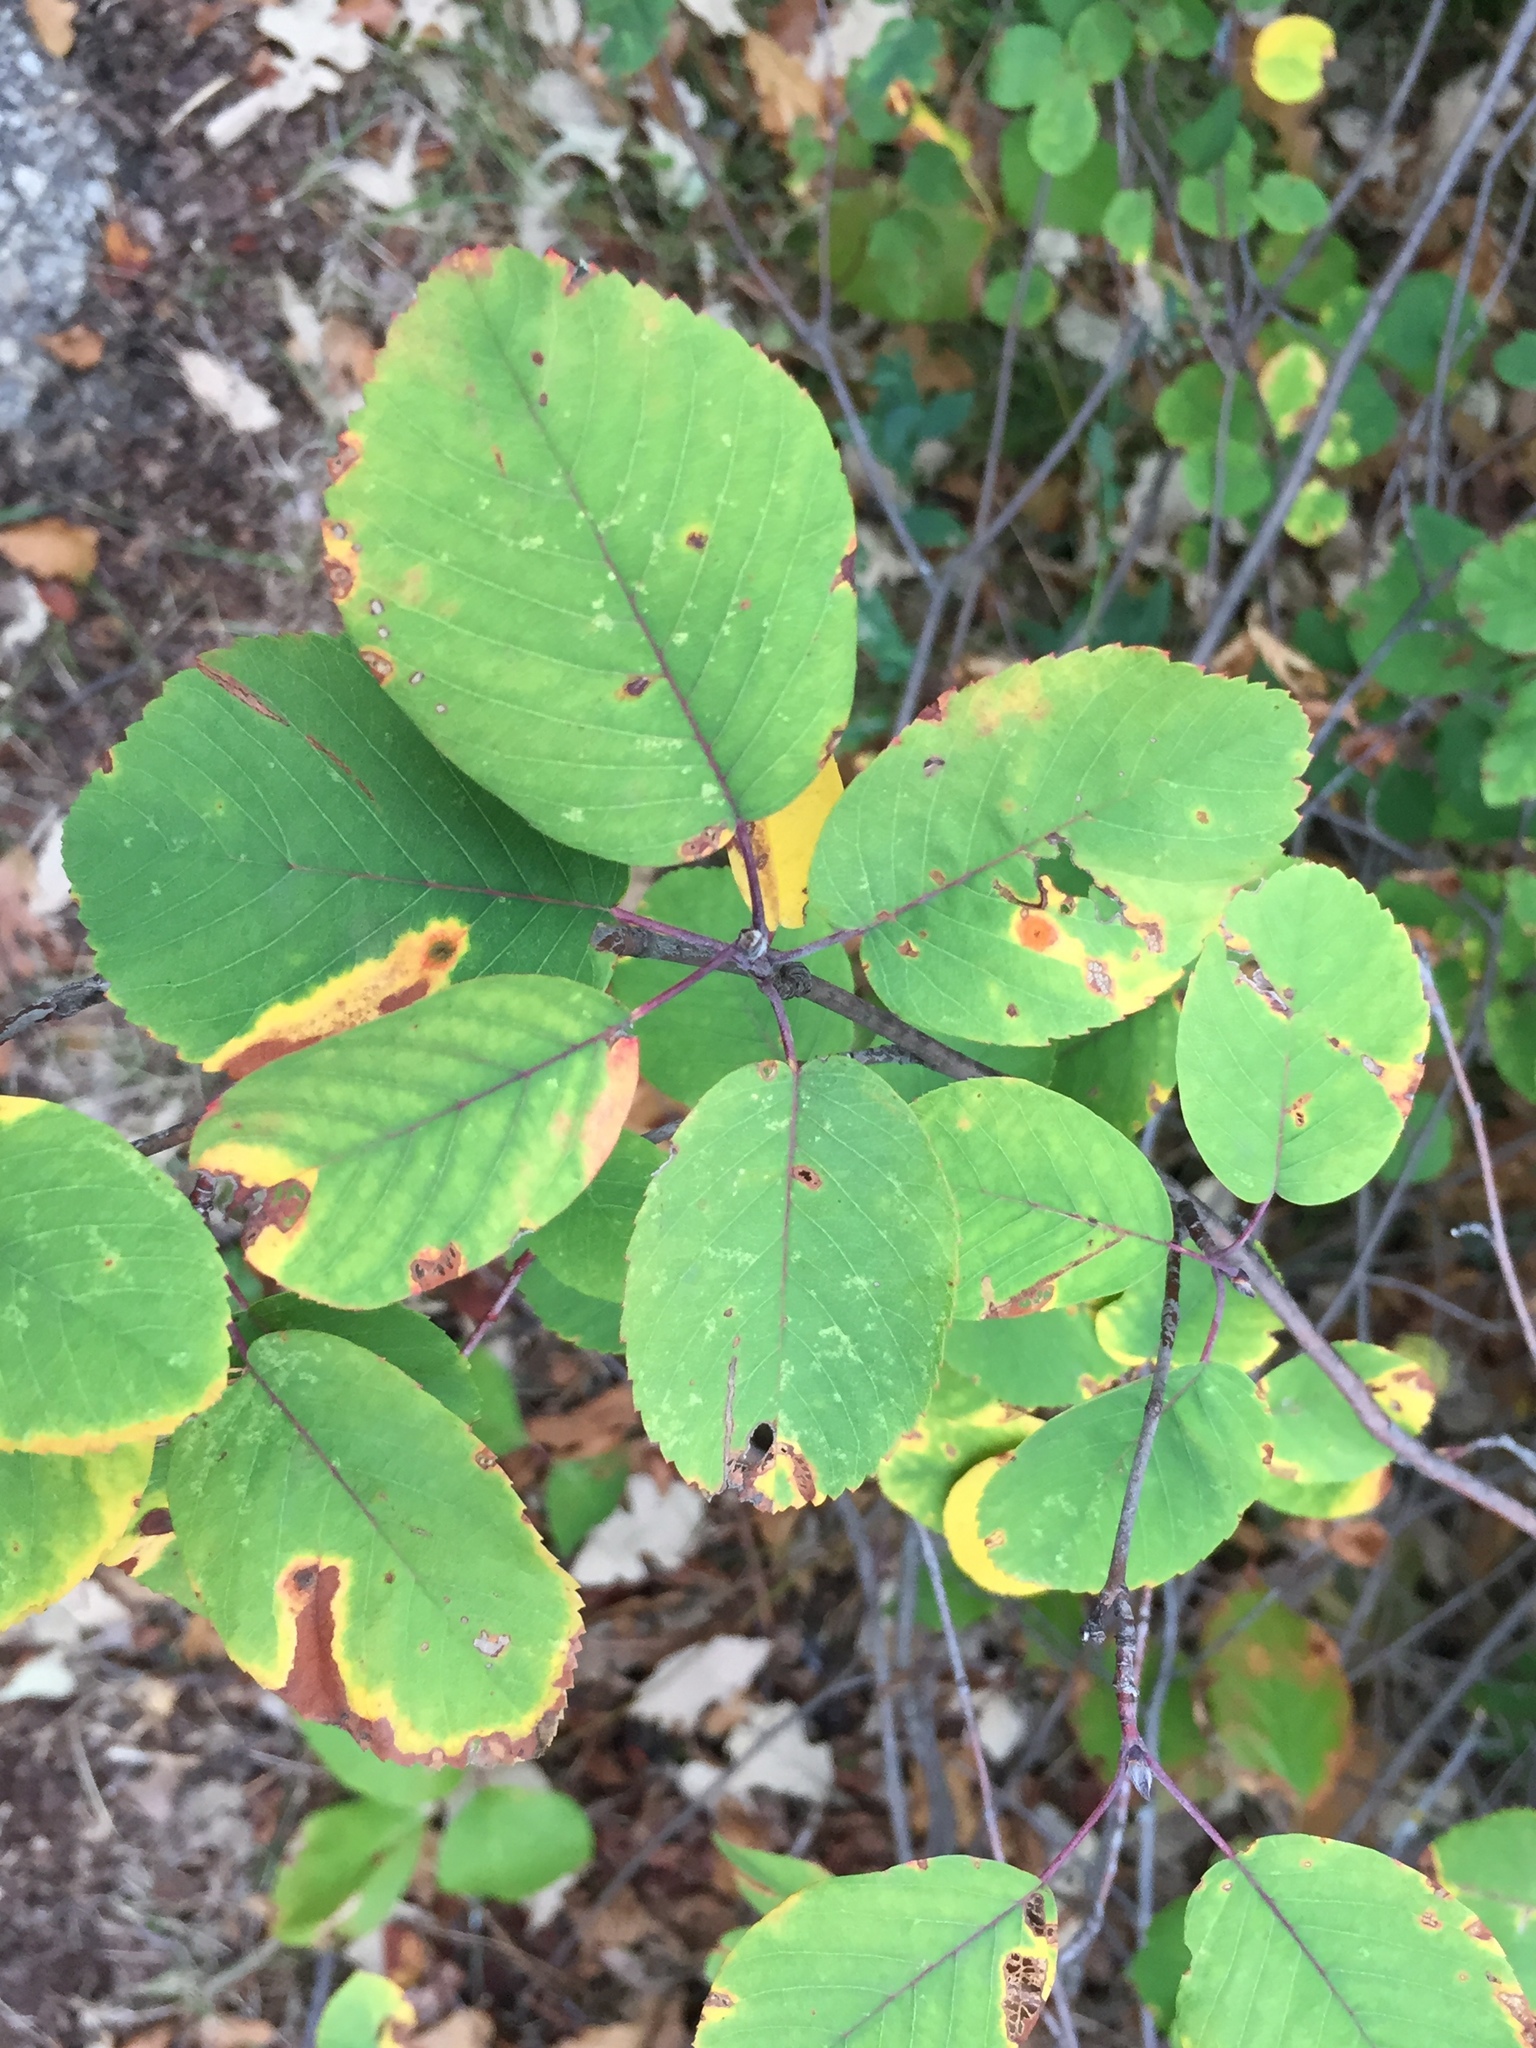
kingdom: Plantae
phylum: Tracheophyta
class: Magnoliopsida
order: Rosales
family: Rosaceae
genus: Amelanchier
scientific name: Amelanchier alnifolia
